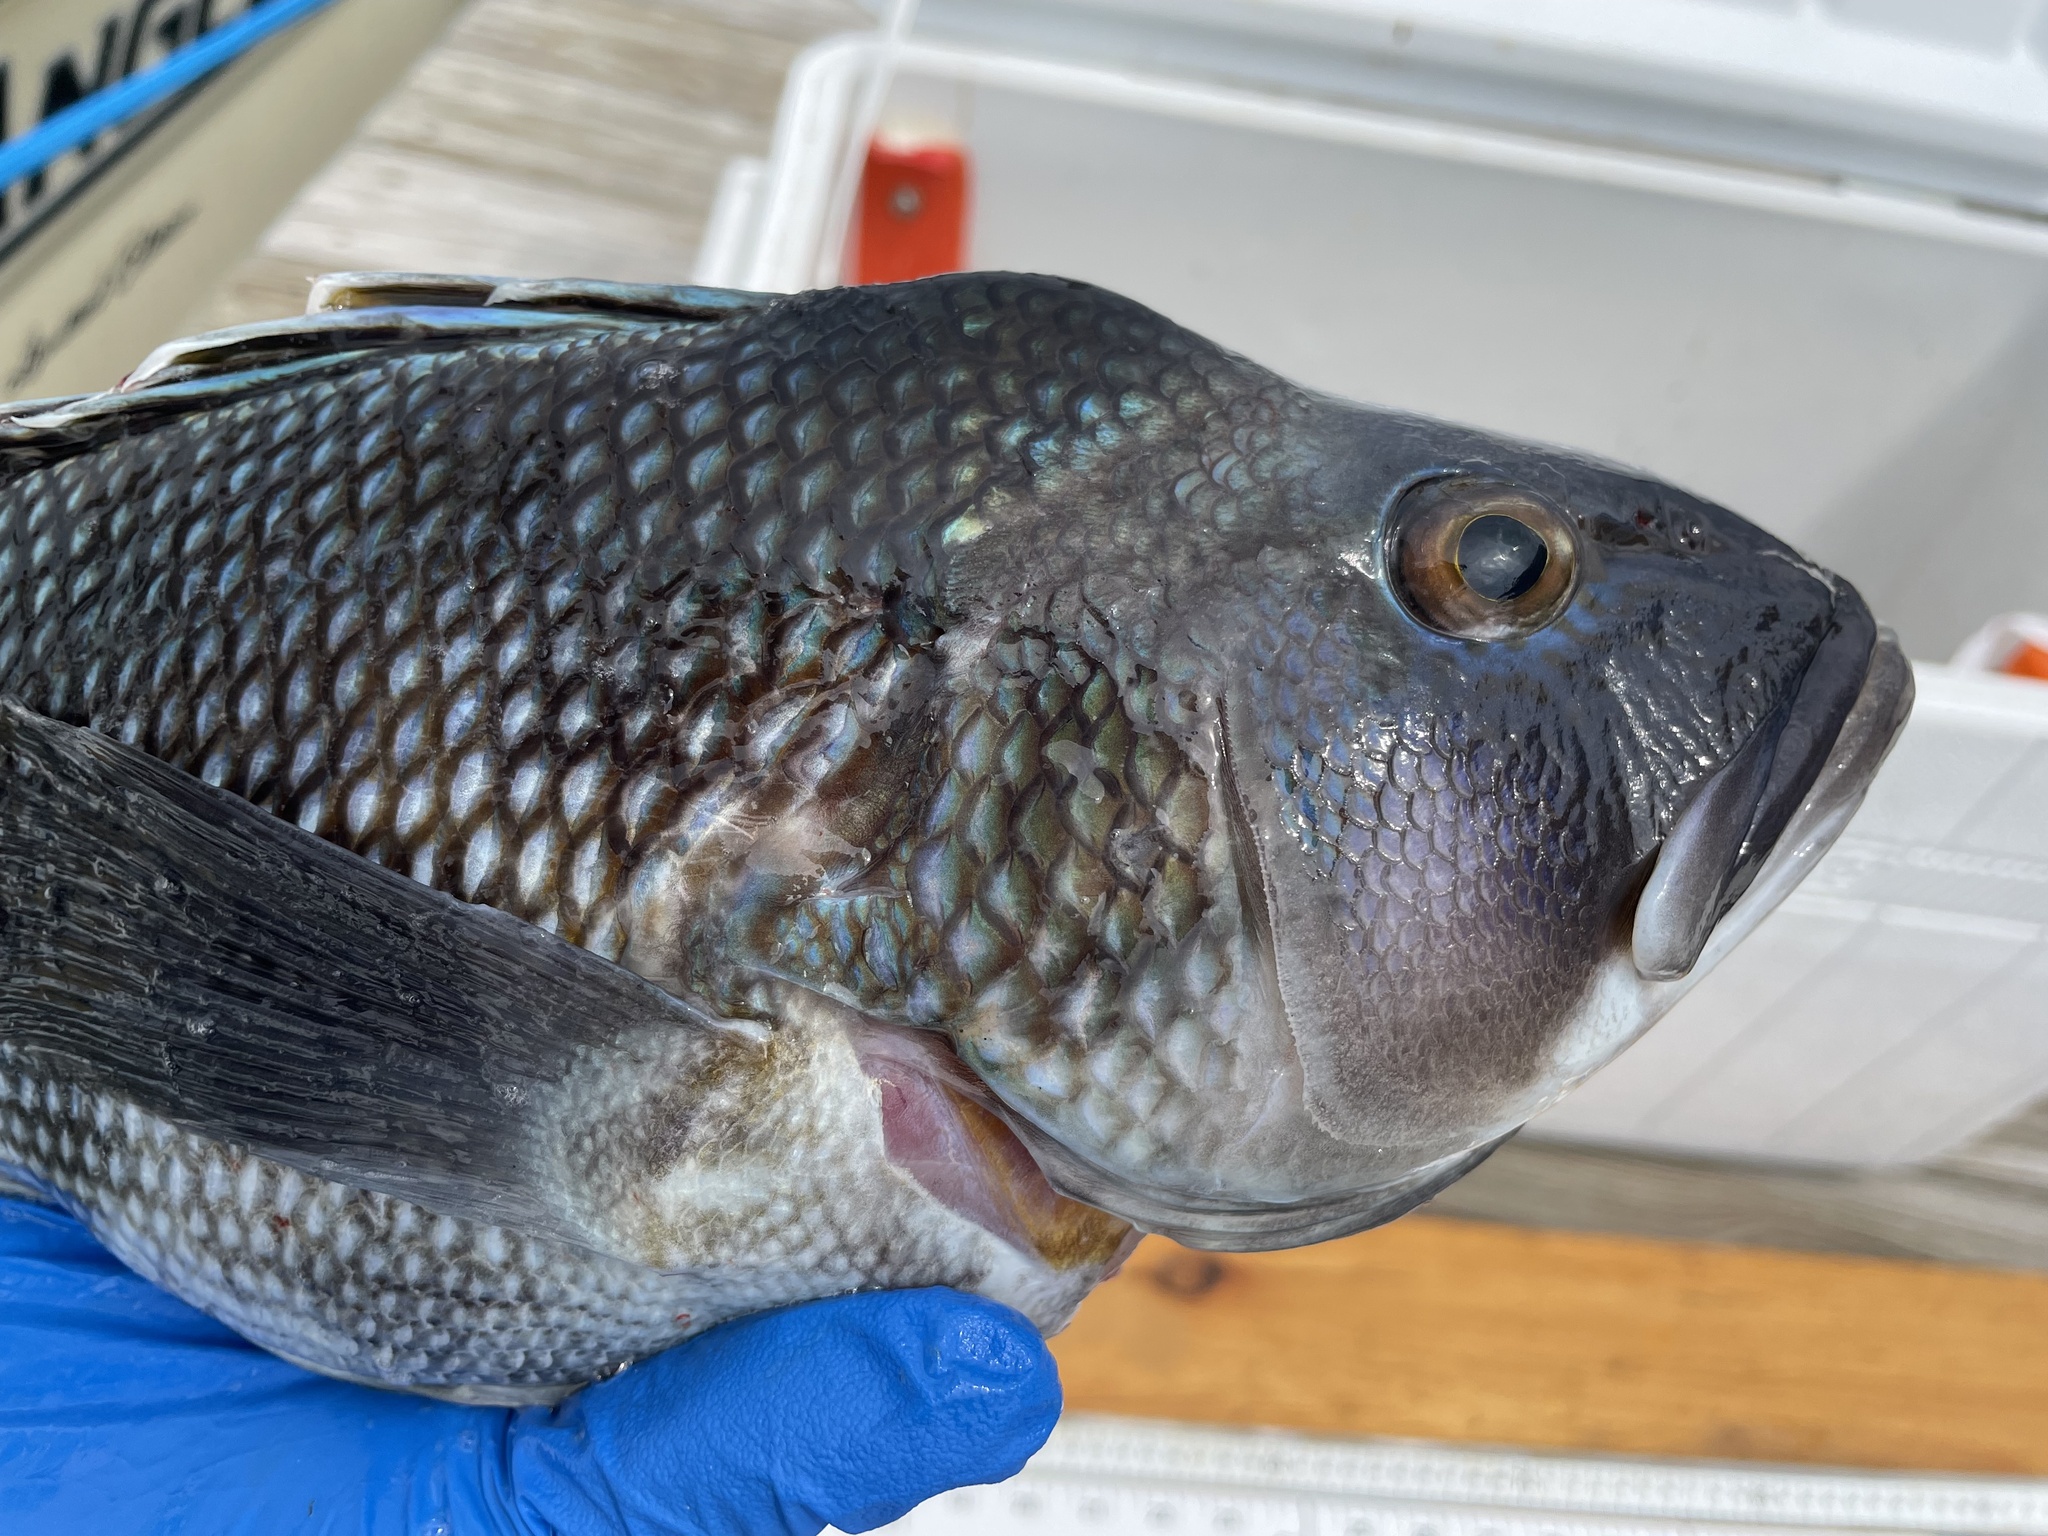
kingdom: Animalia
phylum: Chordata
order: Perciformes
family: Serranidae
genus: Centropristis
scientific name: Centropristis striata
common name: Black sea bass
